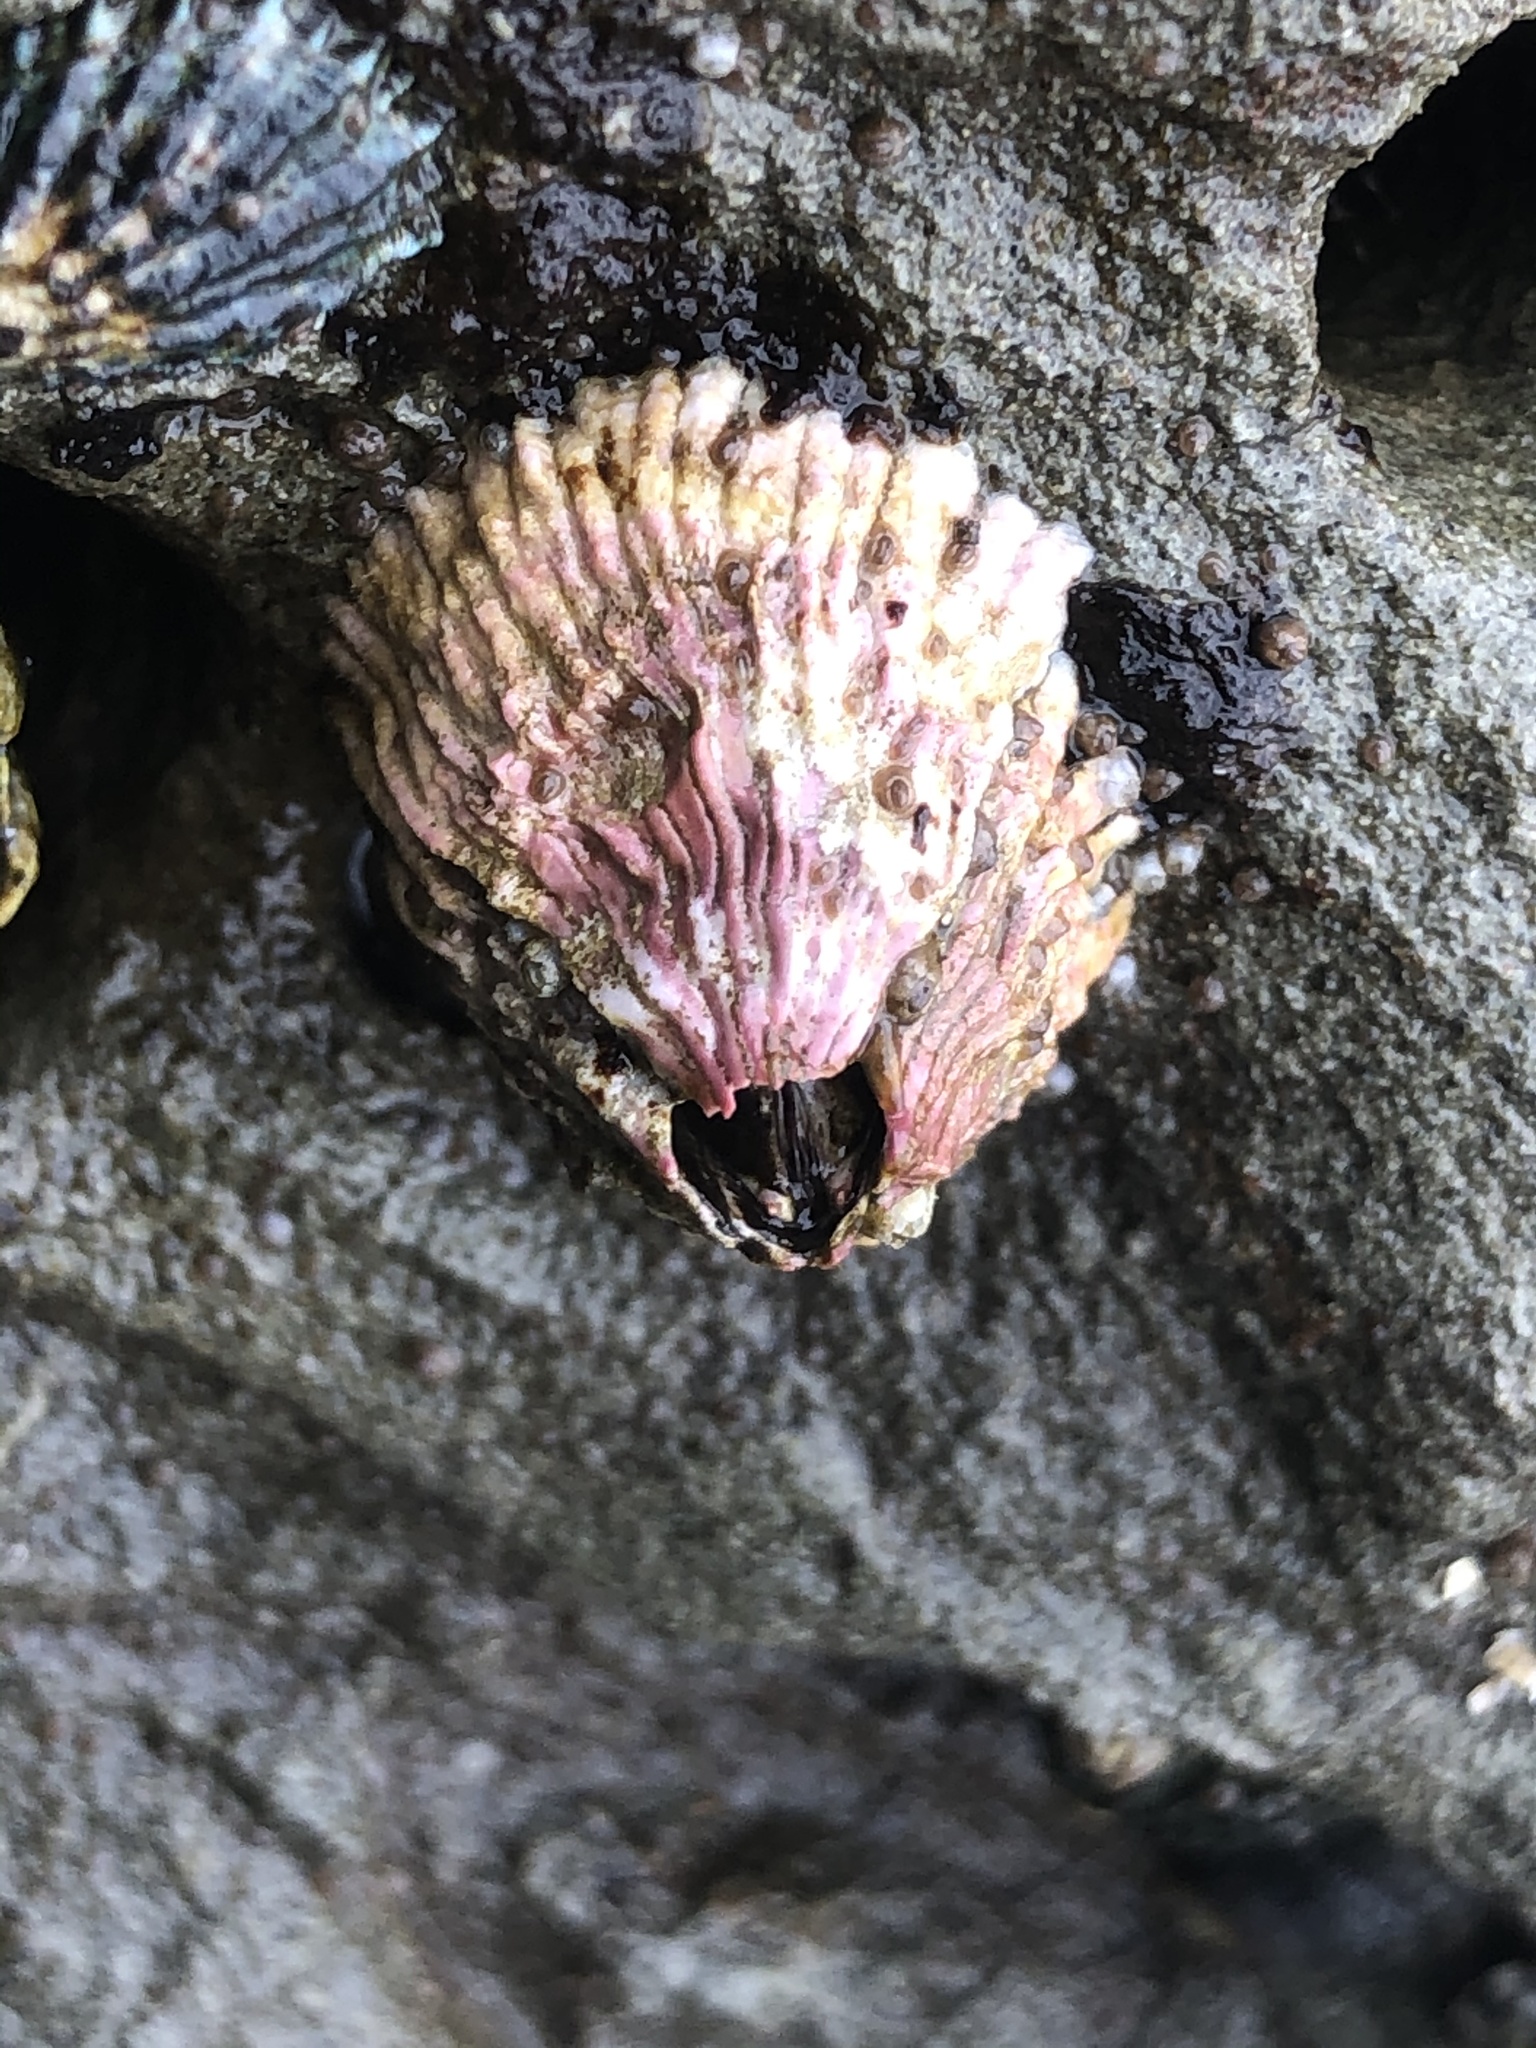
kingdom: Animalia
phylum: Arthropoda
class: Maxillopoda
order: Sessilia
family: Tetraclitidae
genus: Tetraclita
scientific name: Tetraclita rubescens
